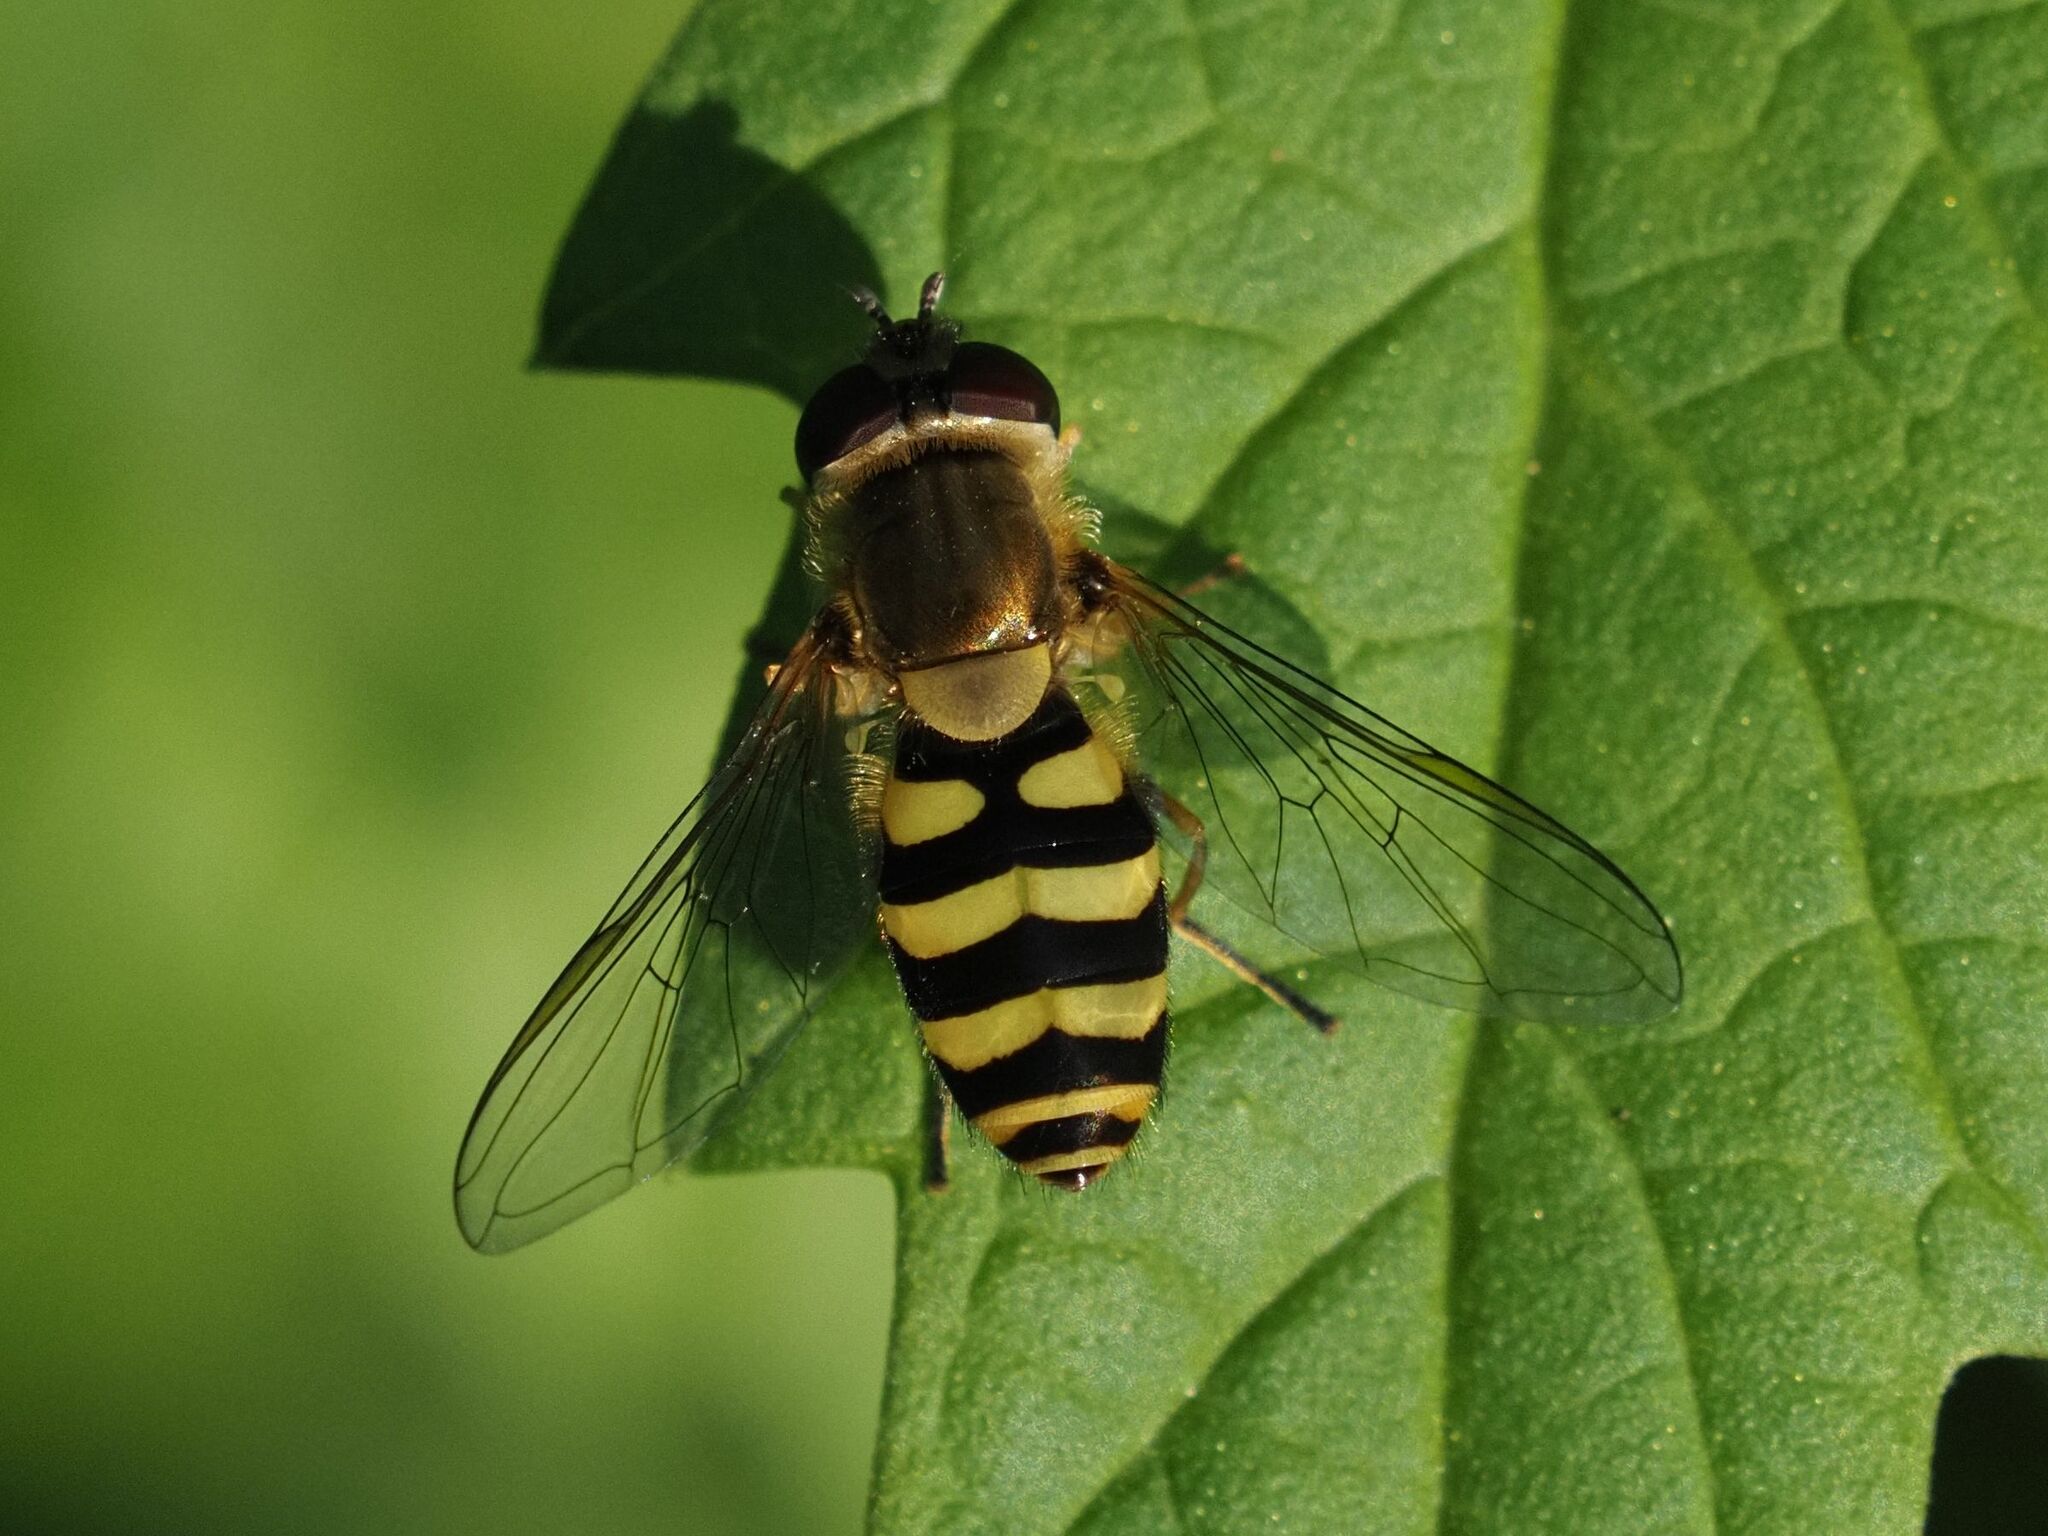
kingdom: Animalia
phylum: Arthropoda
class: Insecta
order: Diptera
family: Syrphidae
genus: Syrphus
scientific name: Syrphus
